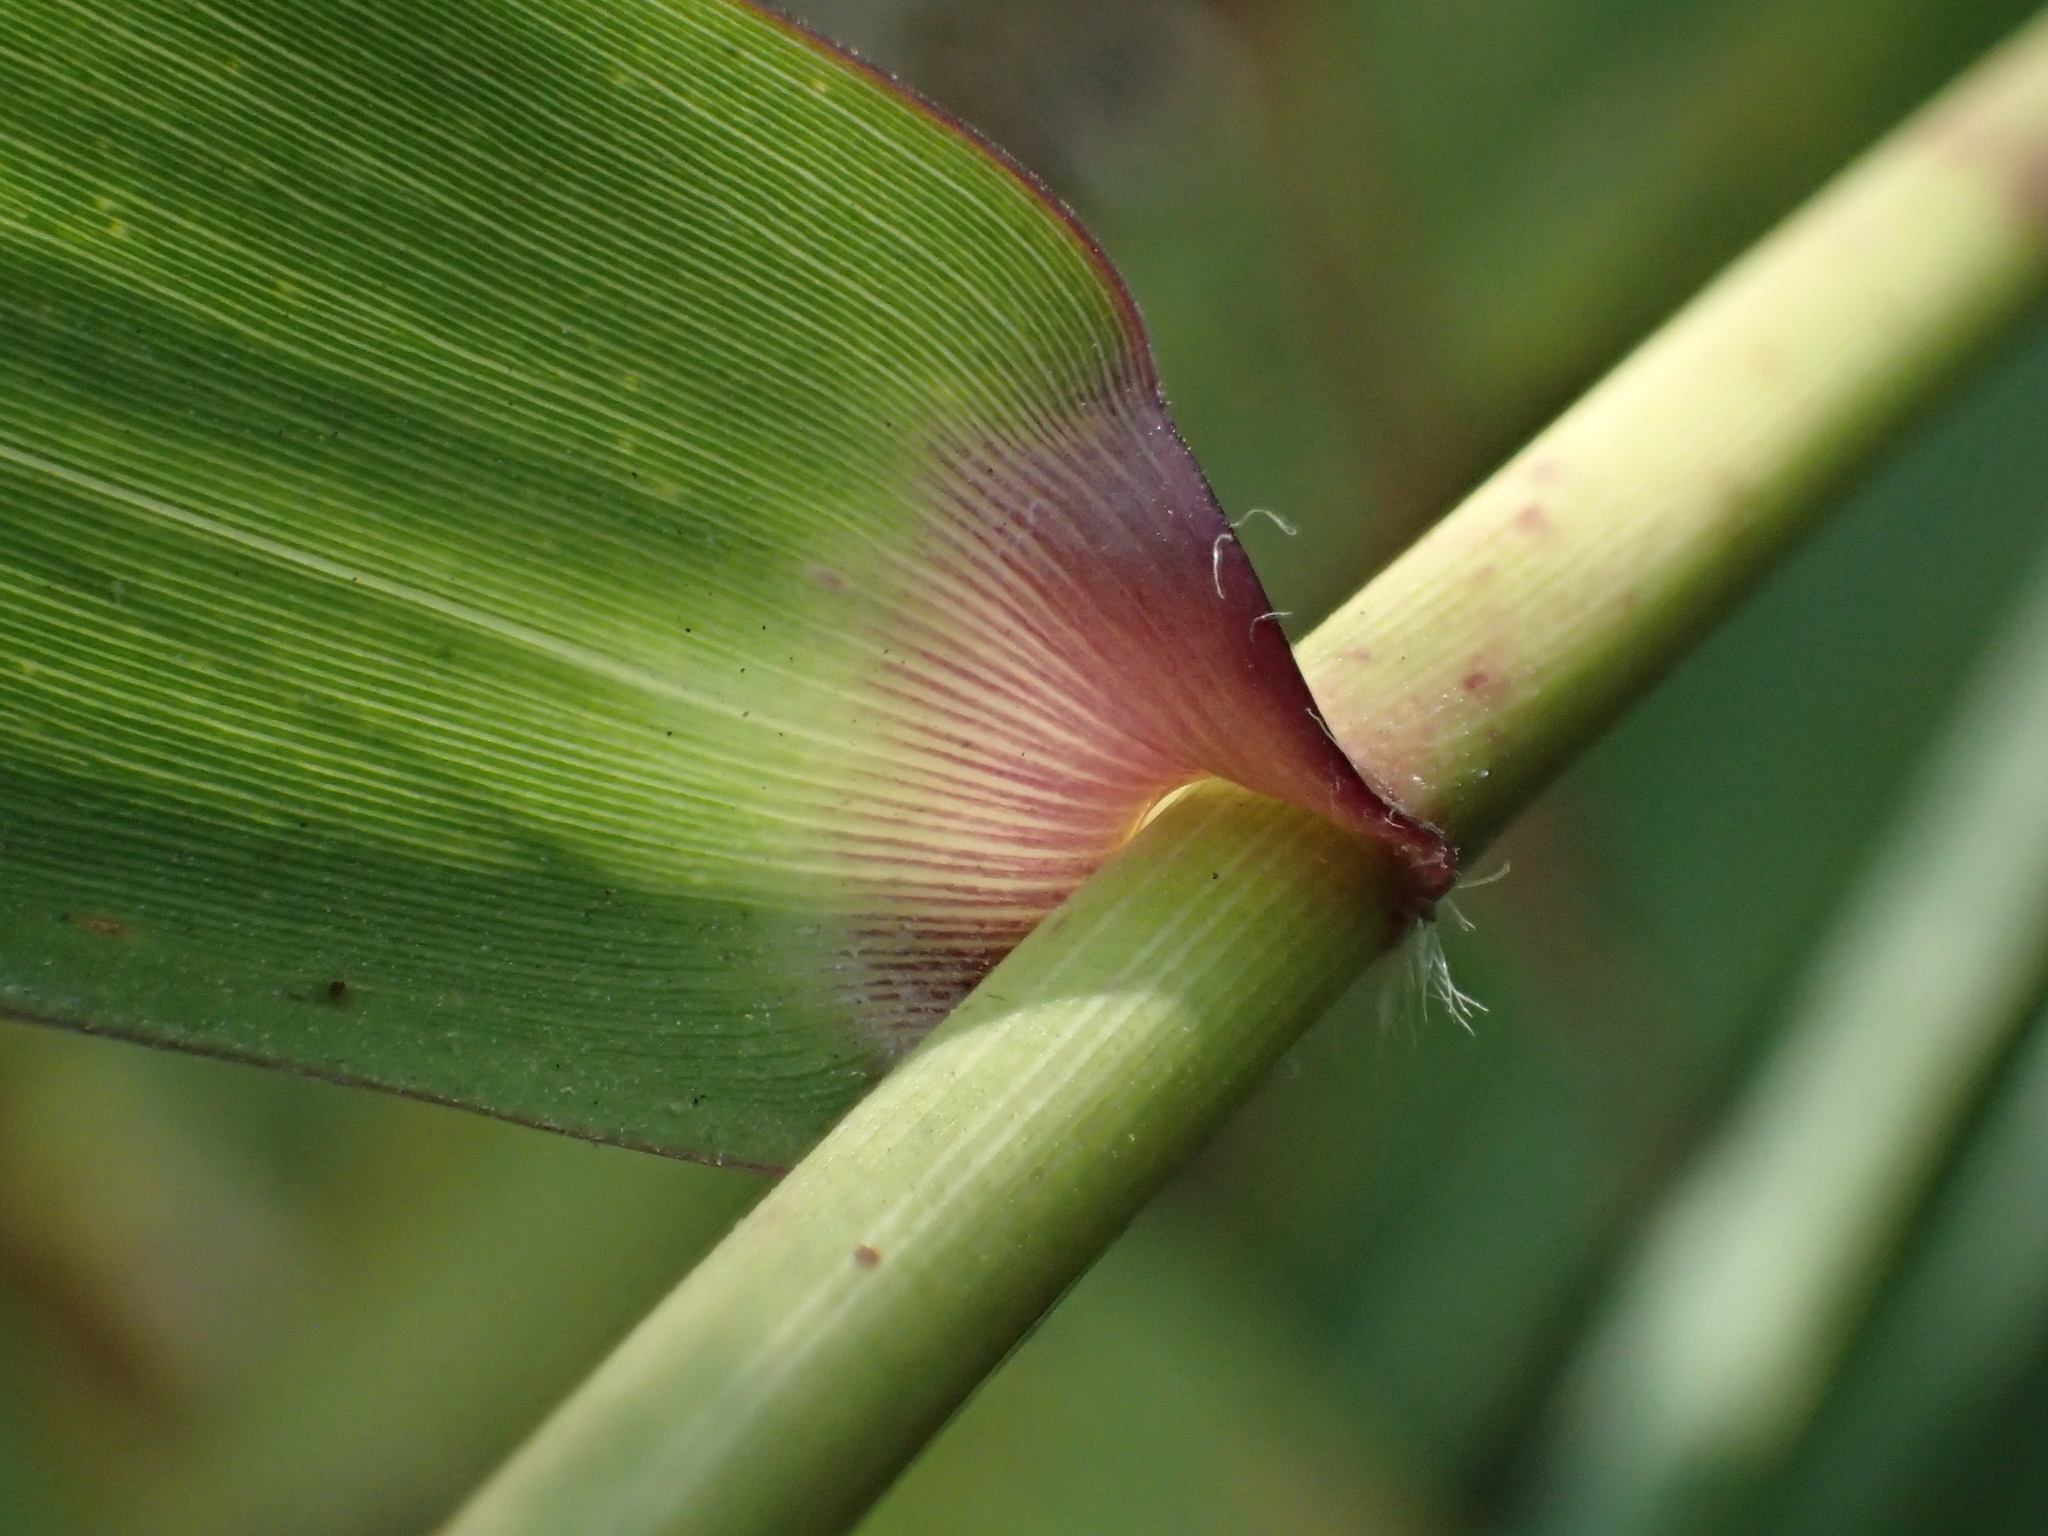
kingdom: Plantae
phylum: Tracheophyta
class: Liliopsida
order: Poales
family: Poaceae
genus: Thysanolaena
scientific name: Thysanolaena latifolia
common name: Tiger grass
